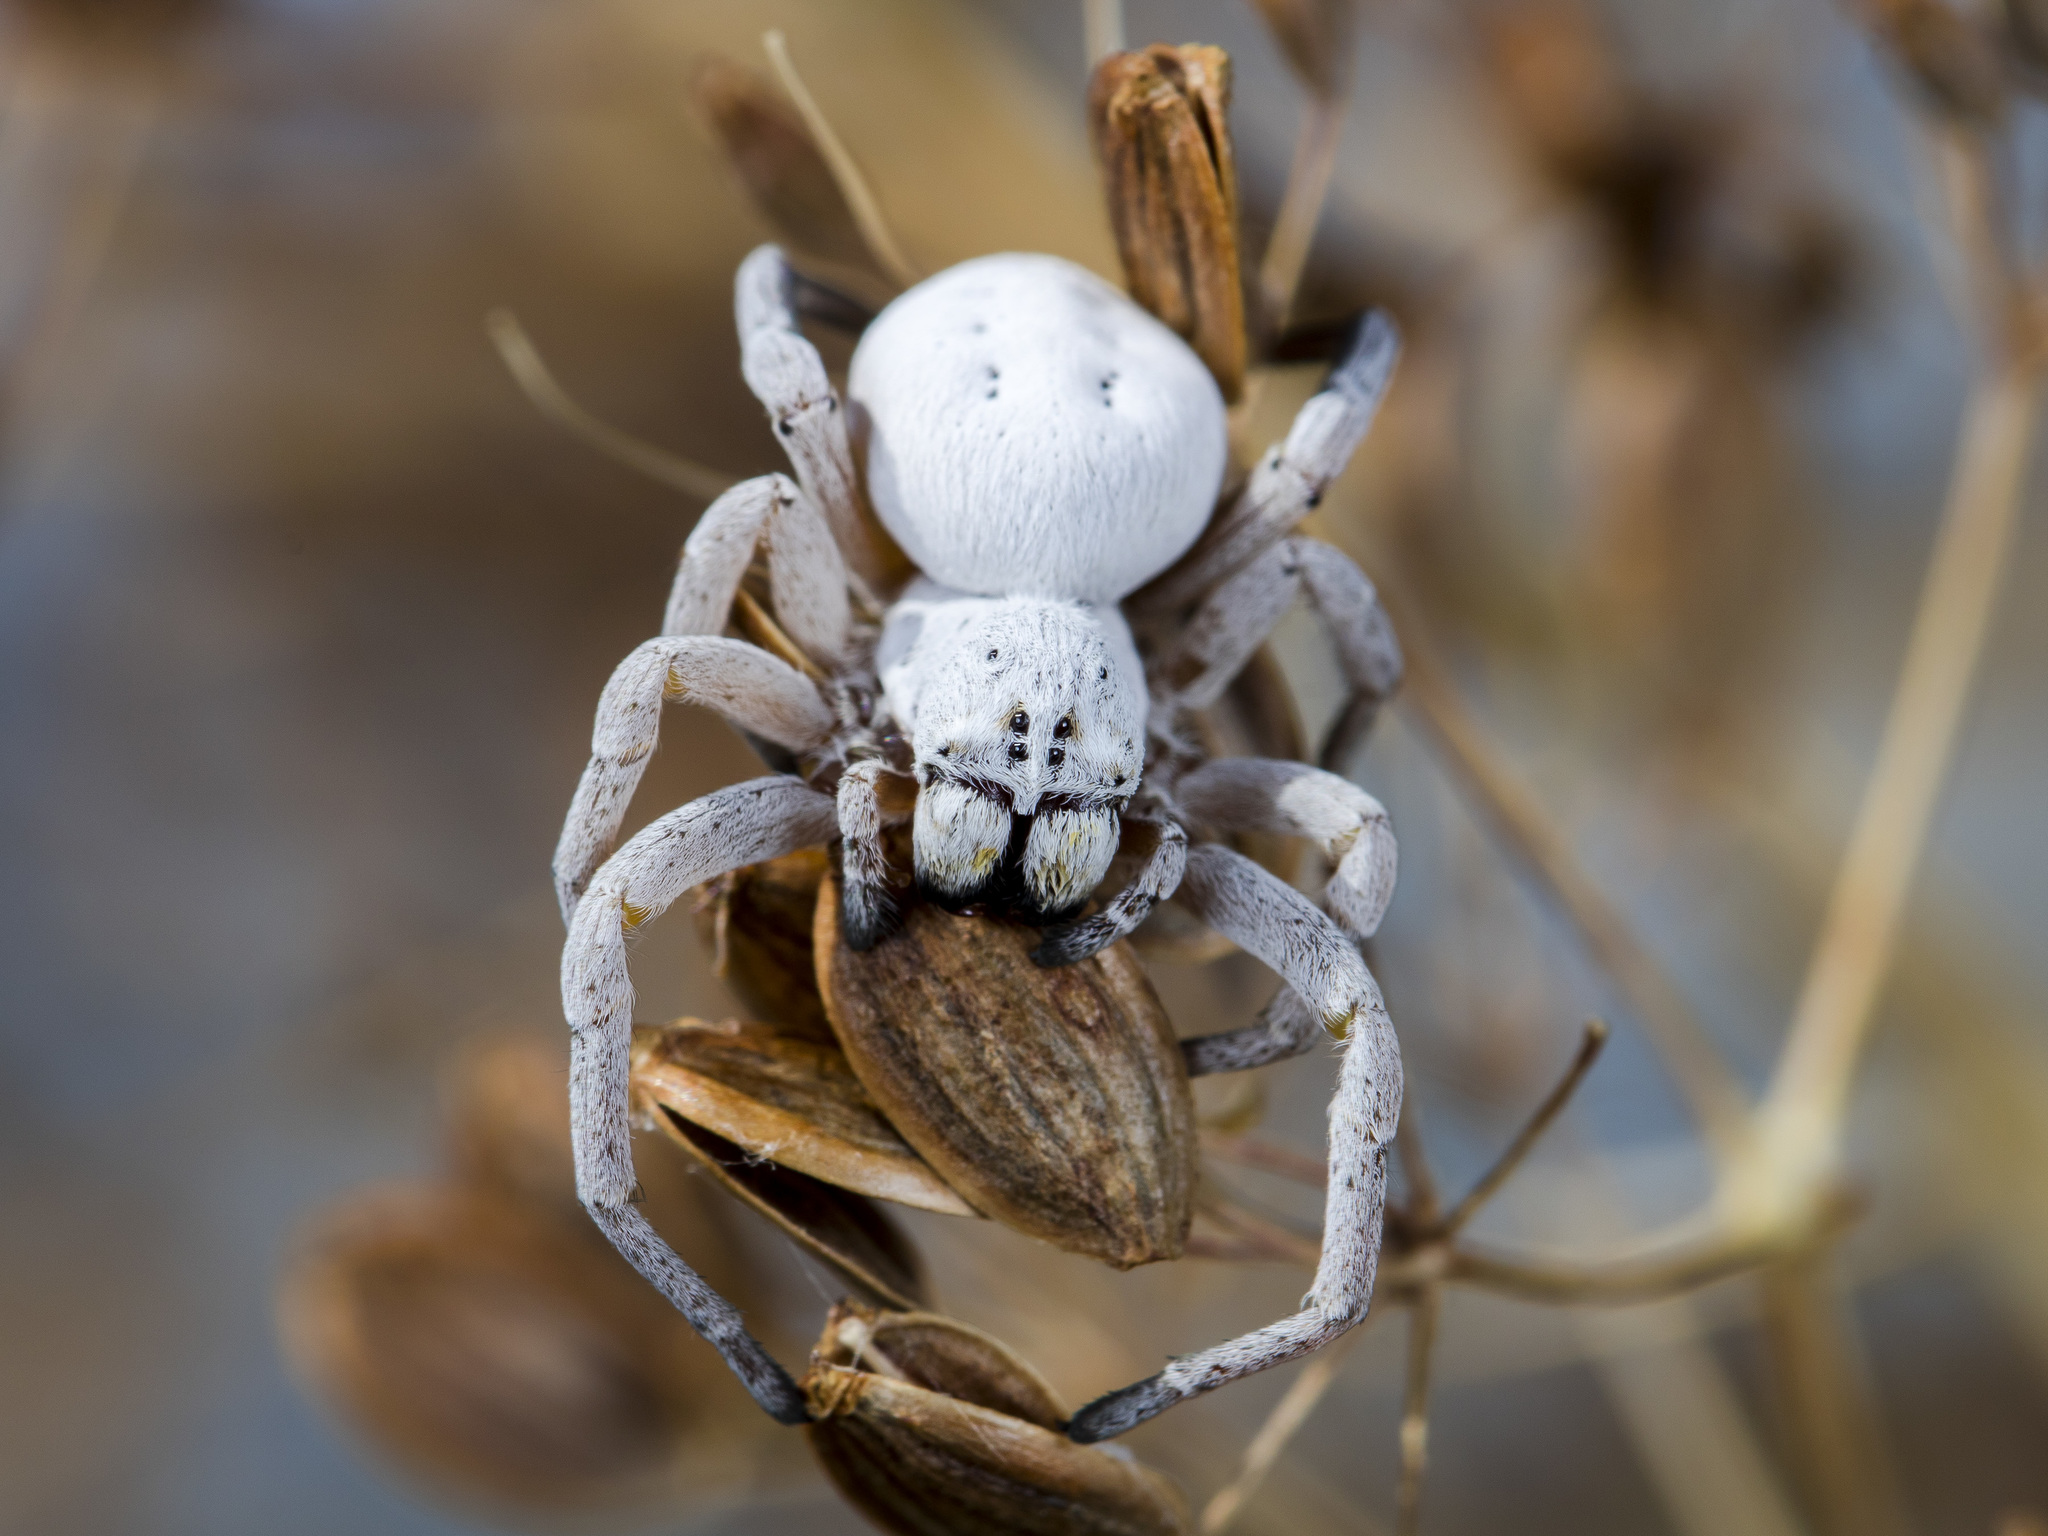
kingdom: Animalia
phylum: Arthropoda
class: Arachnida
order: Araneae
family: Eresidae
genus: Stegodyphus
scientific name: Stegodyphus lineatus
